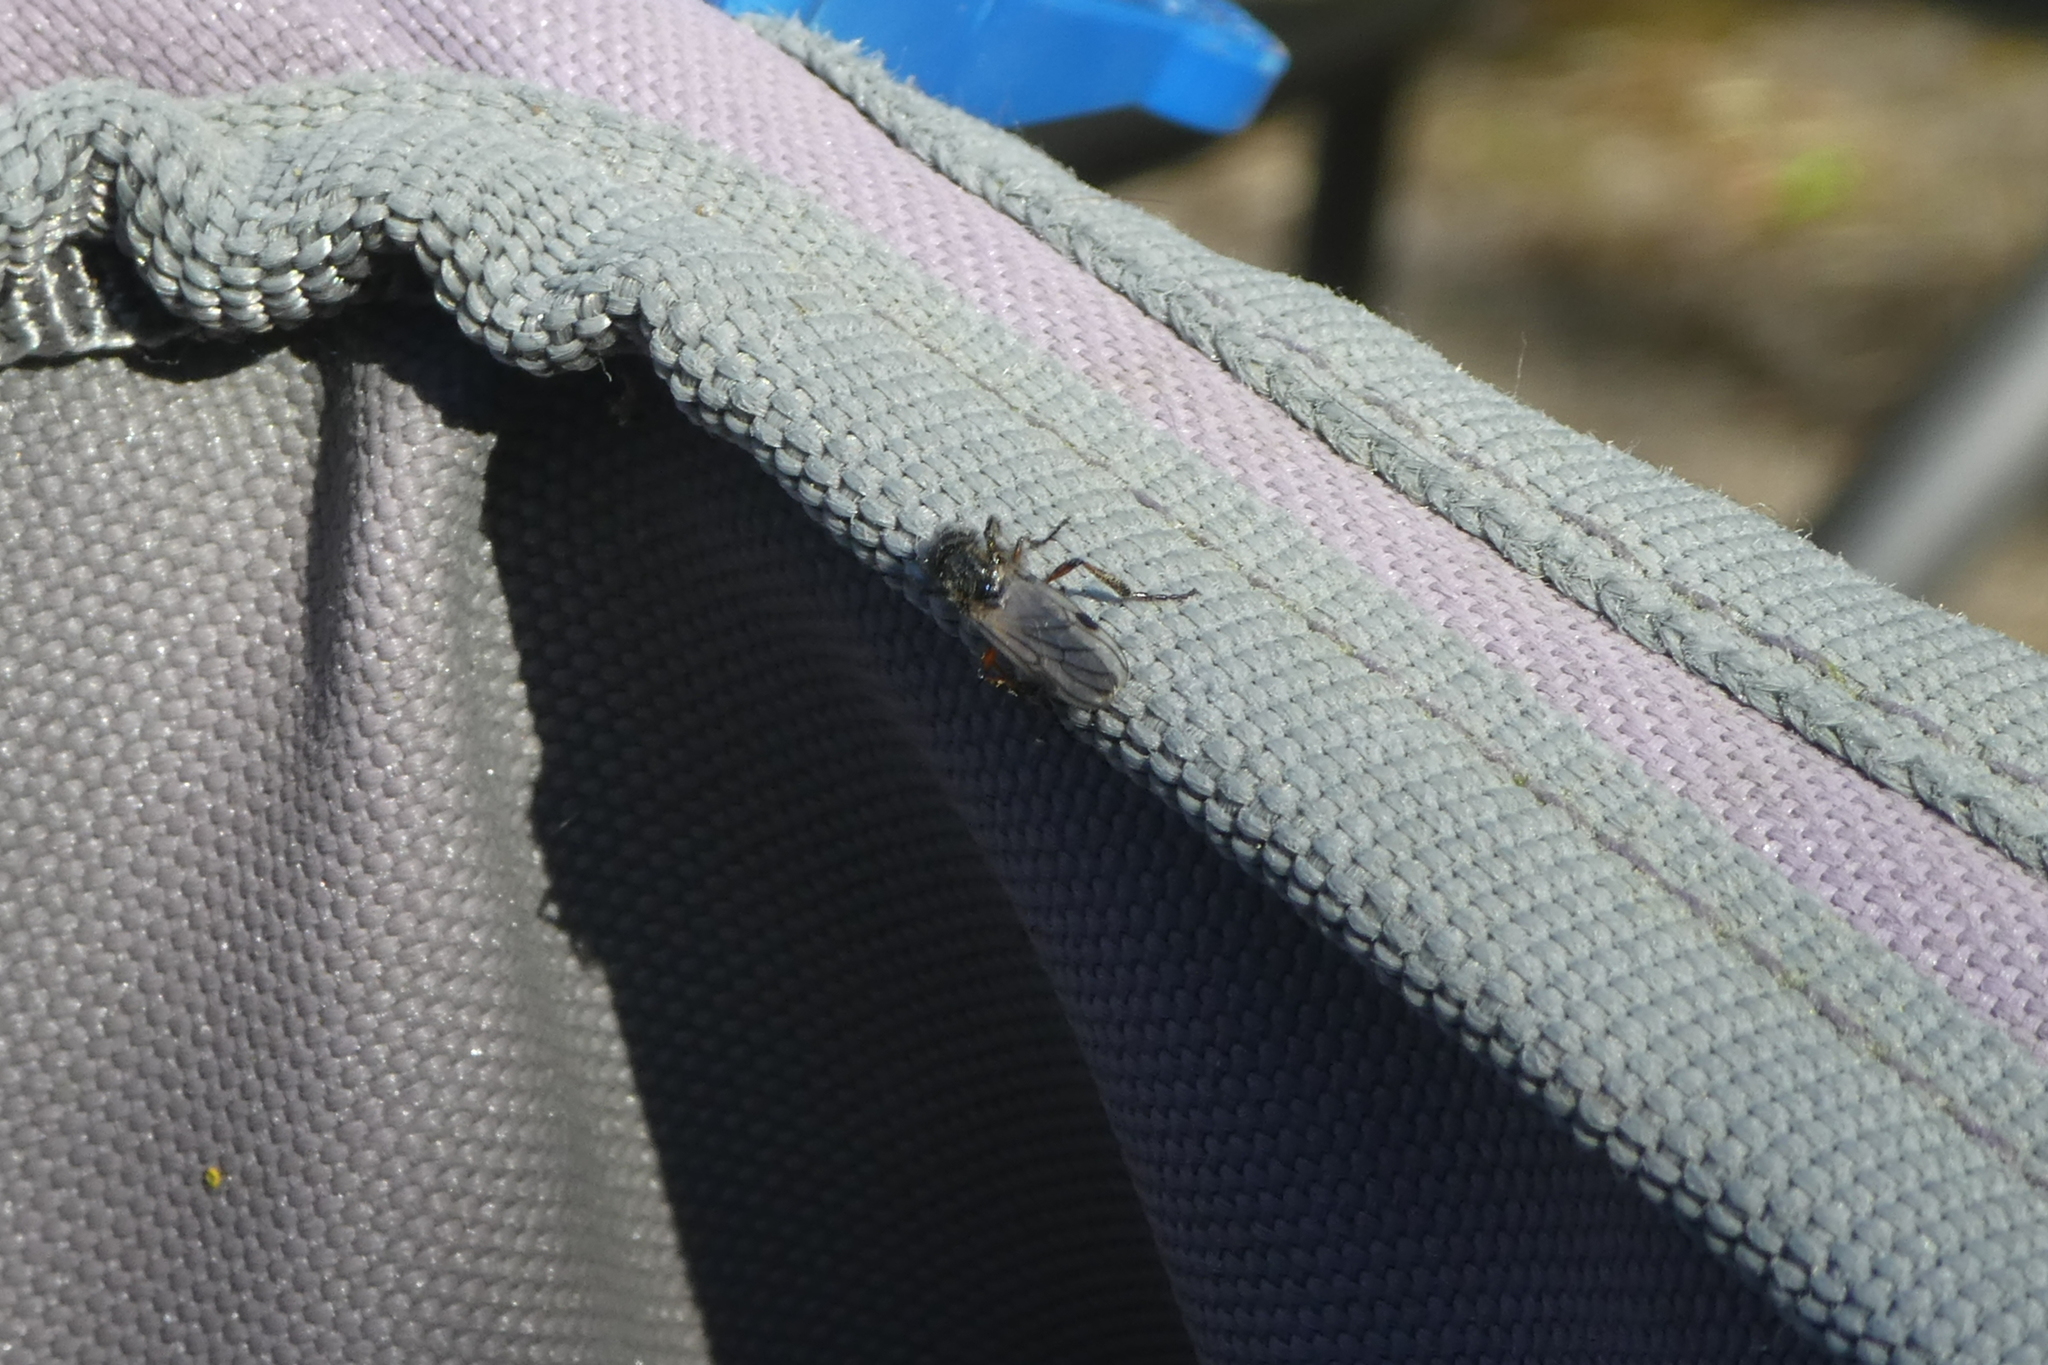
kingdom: Animalia
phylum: Arthropoda
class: Insecta
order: Diptera
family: Bibionidae
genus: Bibio
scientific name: Bibio
